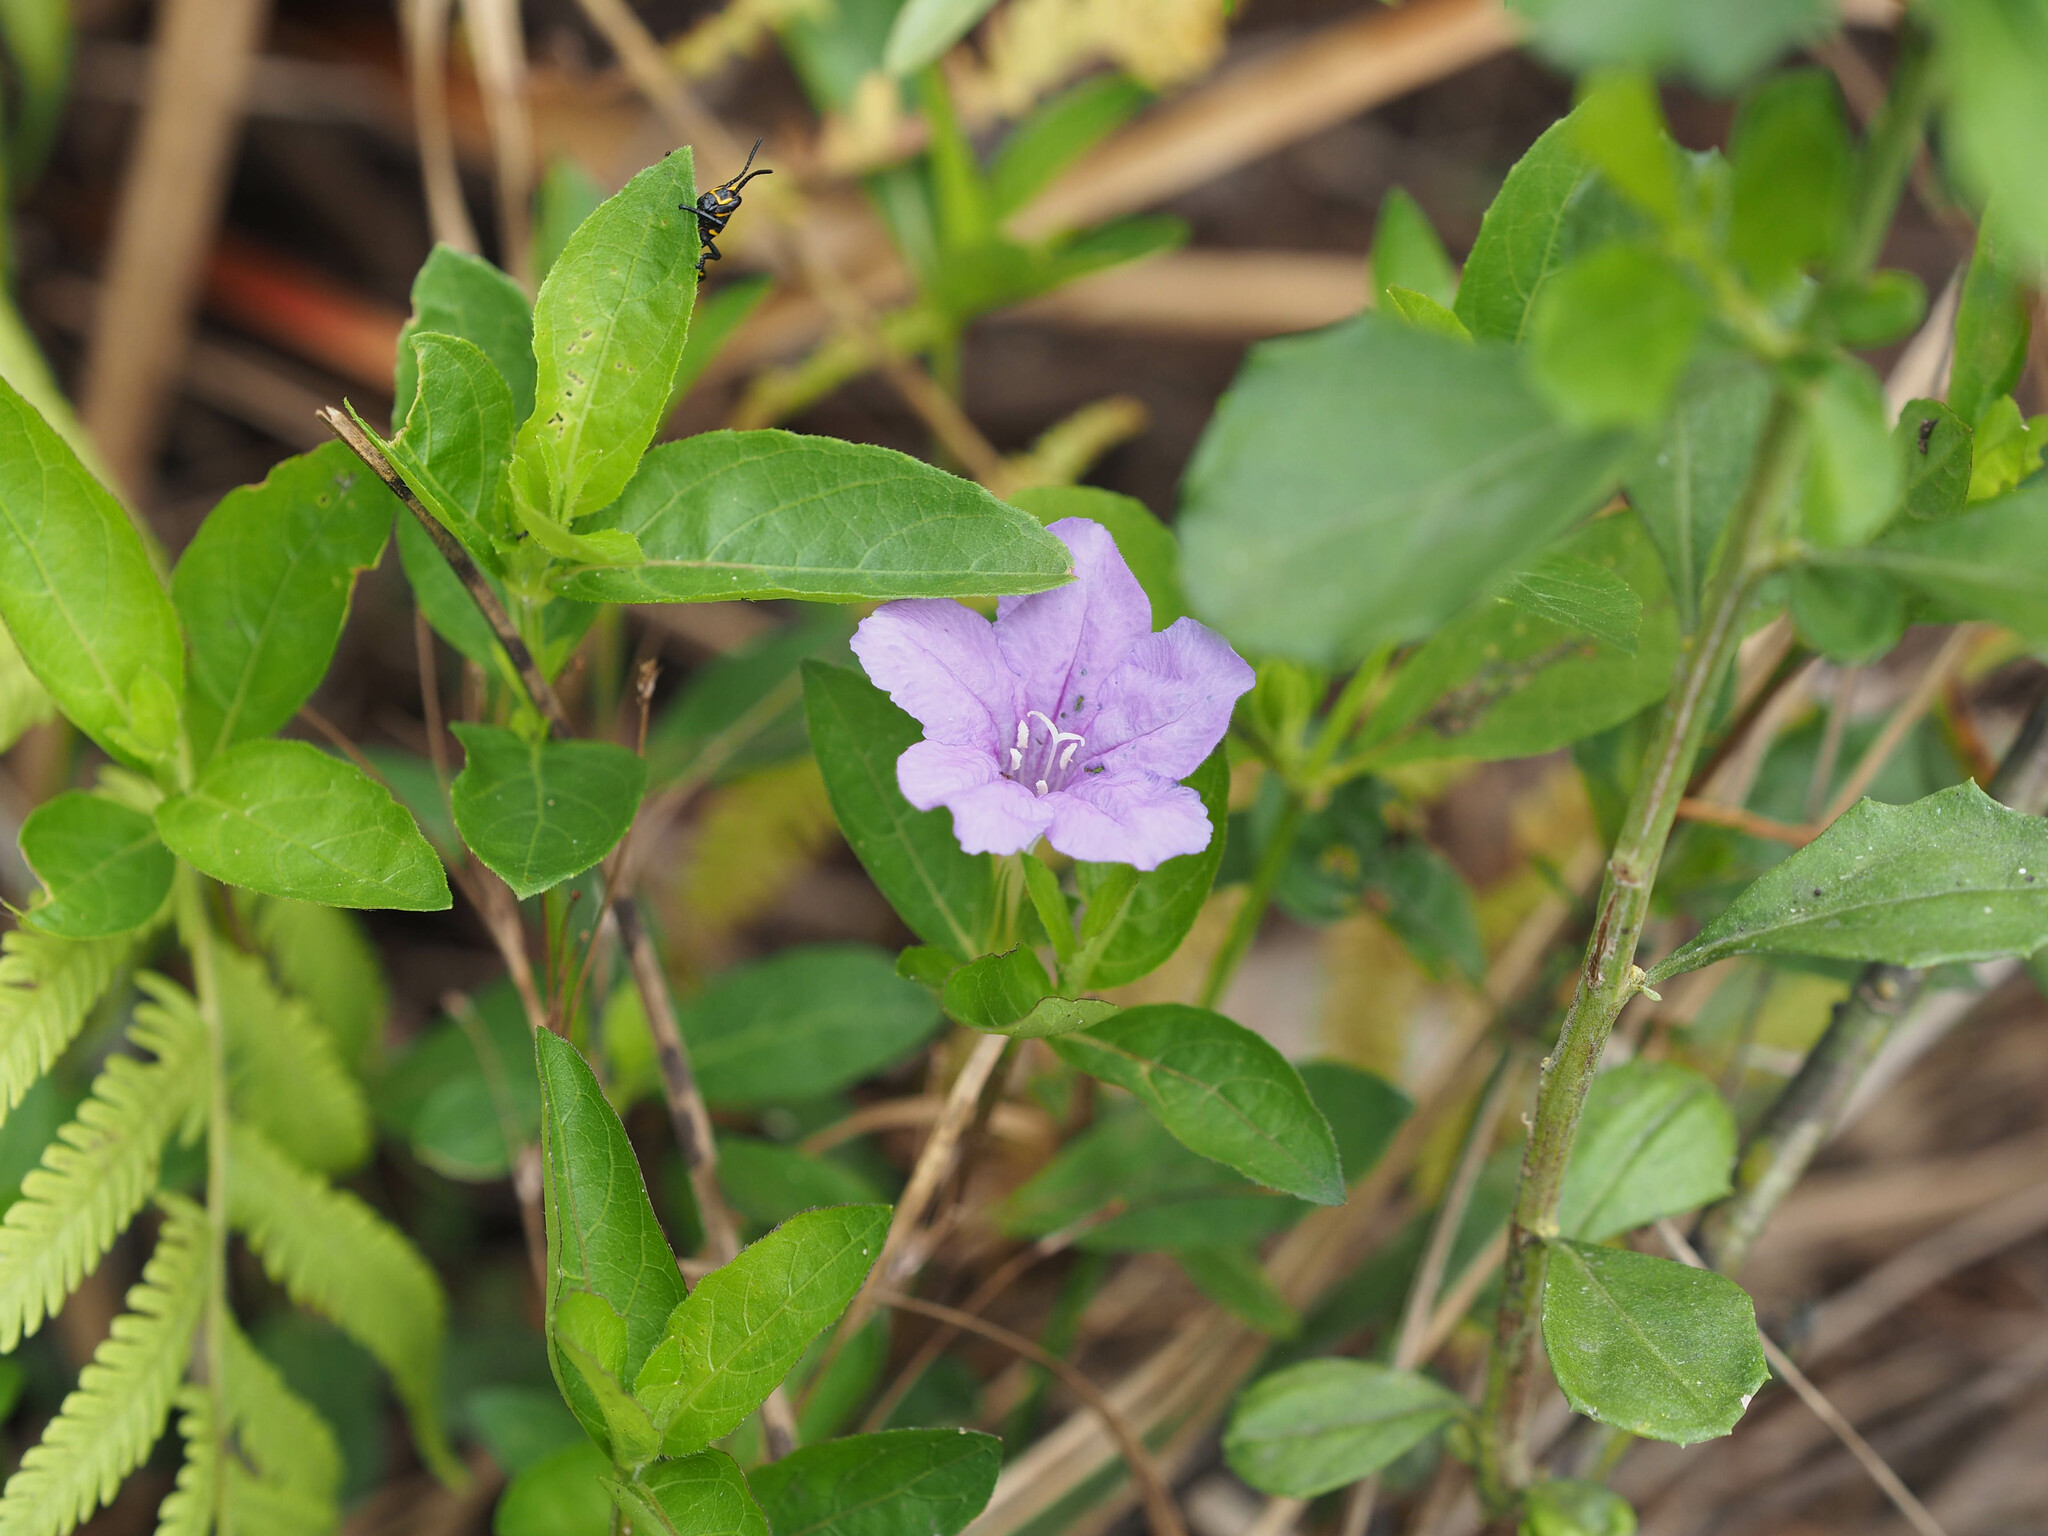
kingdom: Plantae
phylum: Tracheophyta
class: Magnoliopsida
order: Lamiales
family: Acanthaceae
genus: Ruellia
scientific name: Ruellia caroliniensis
